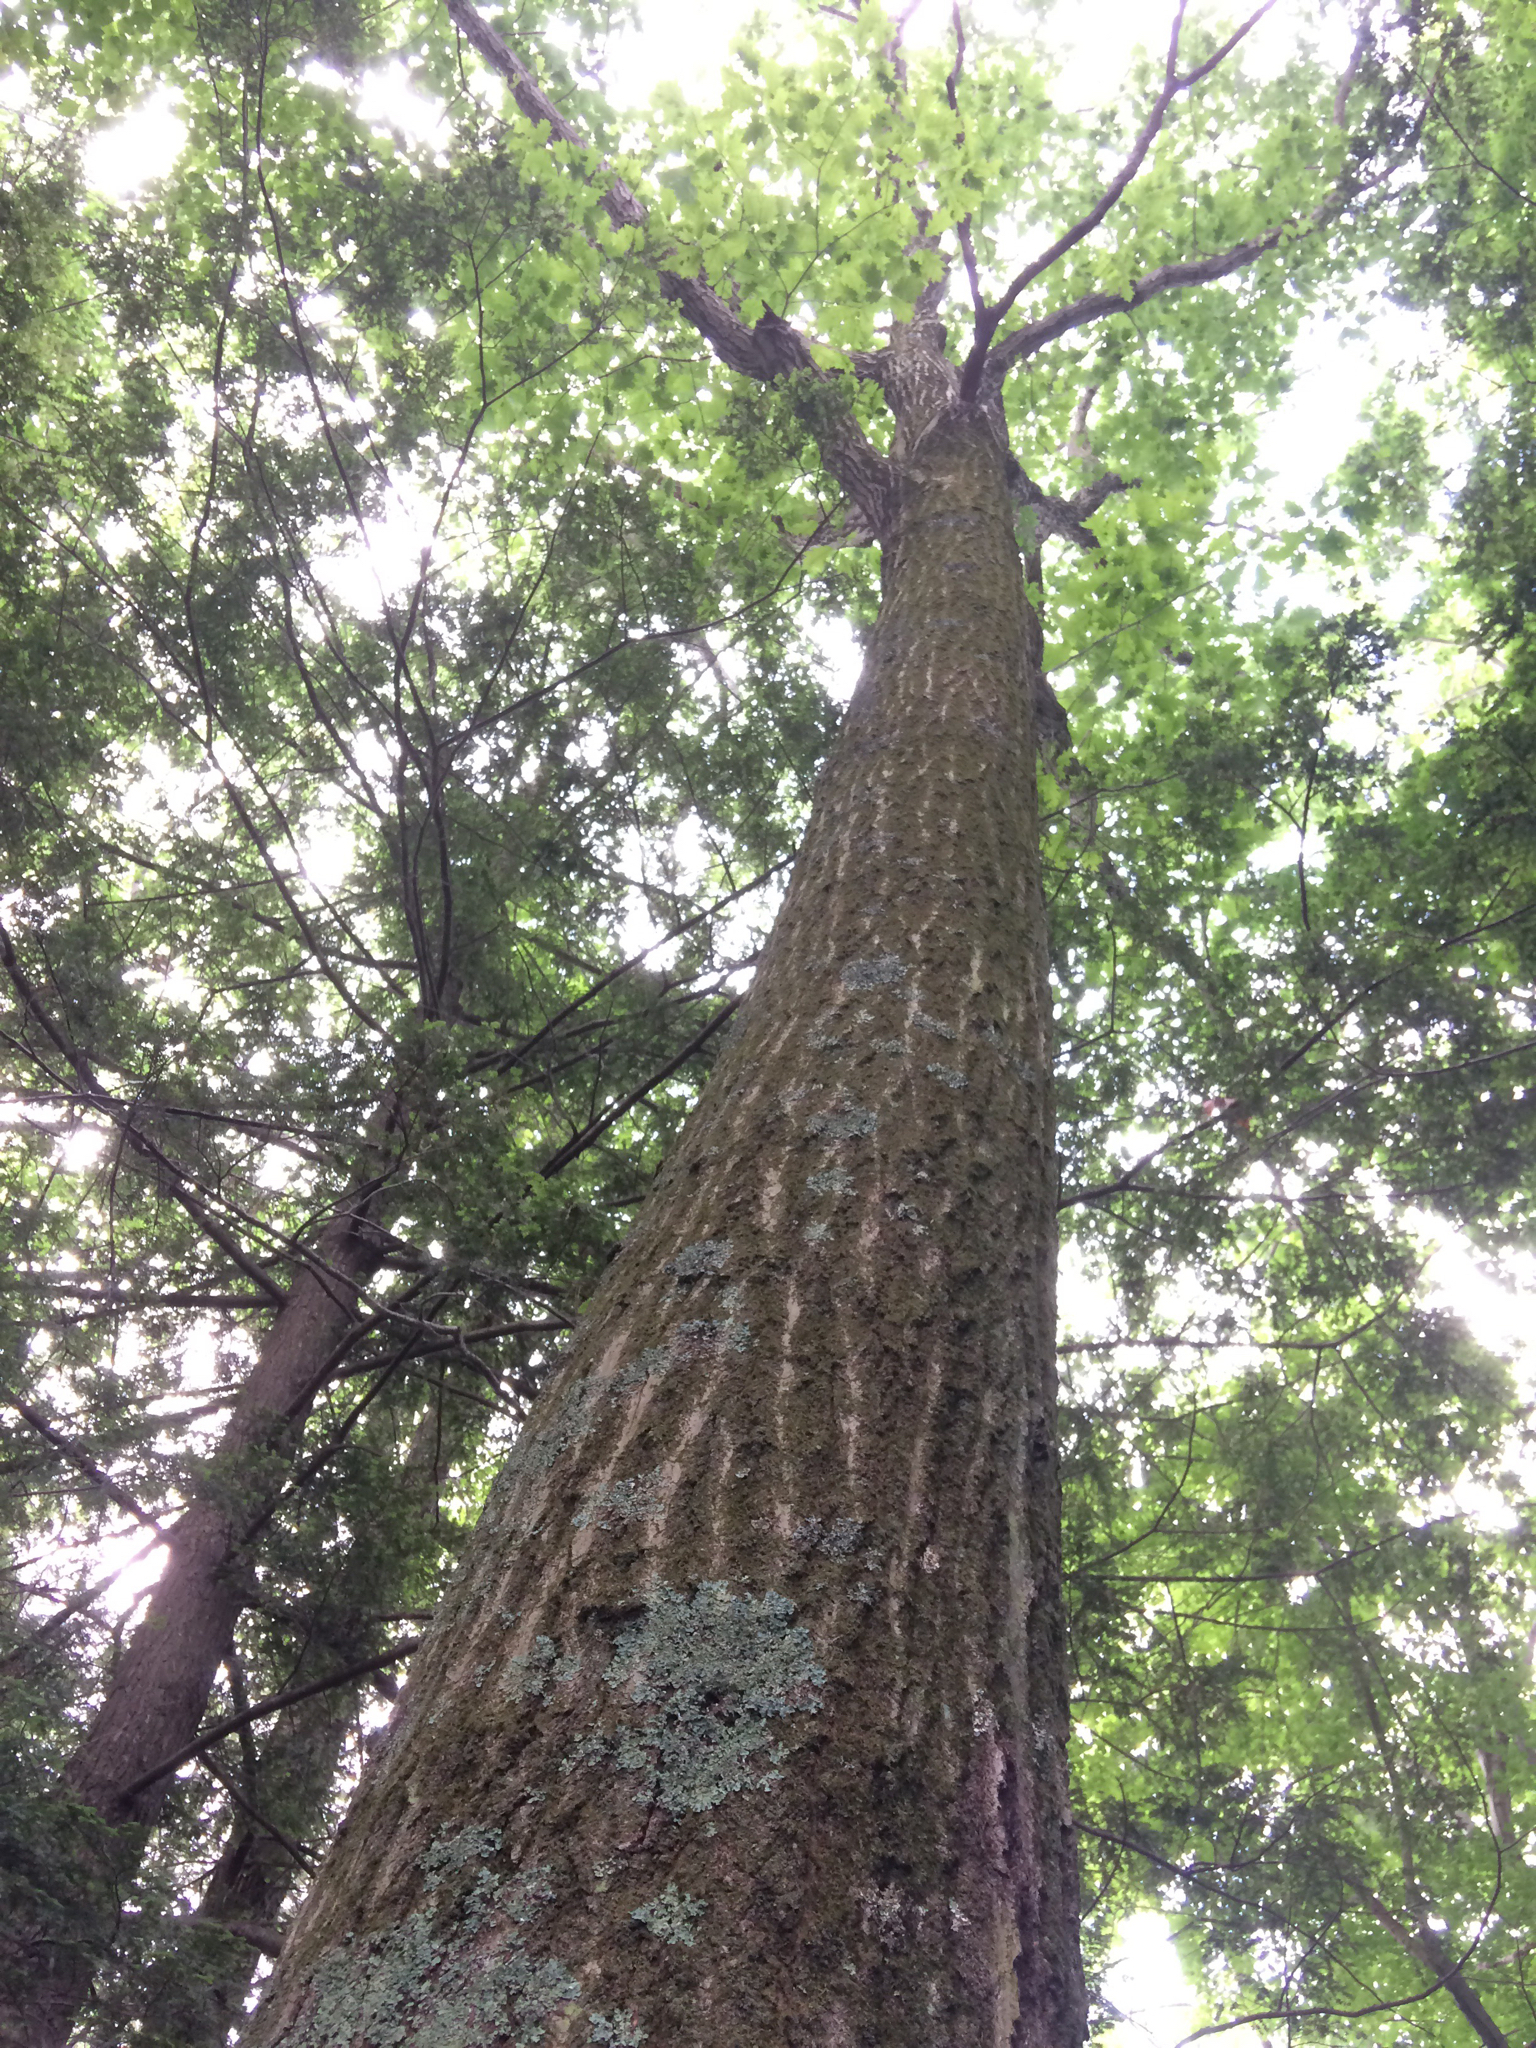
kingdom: Plantae
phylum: Tracheophyta
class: Magnoliopsida
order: Fagales
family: Fagaceae
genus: Quercus
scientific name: Quercus rubra
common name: Red oak
